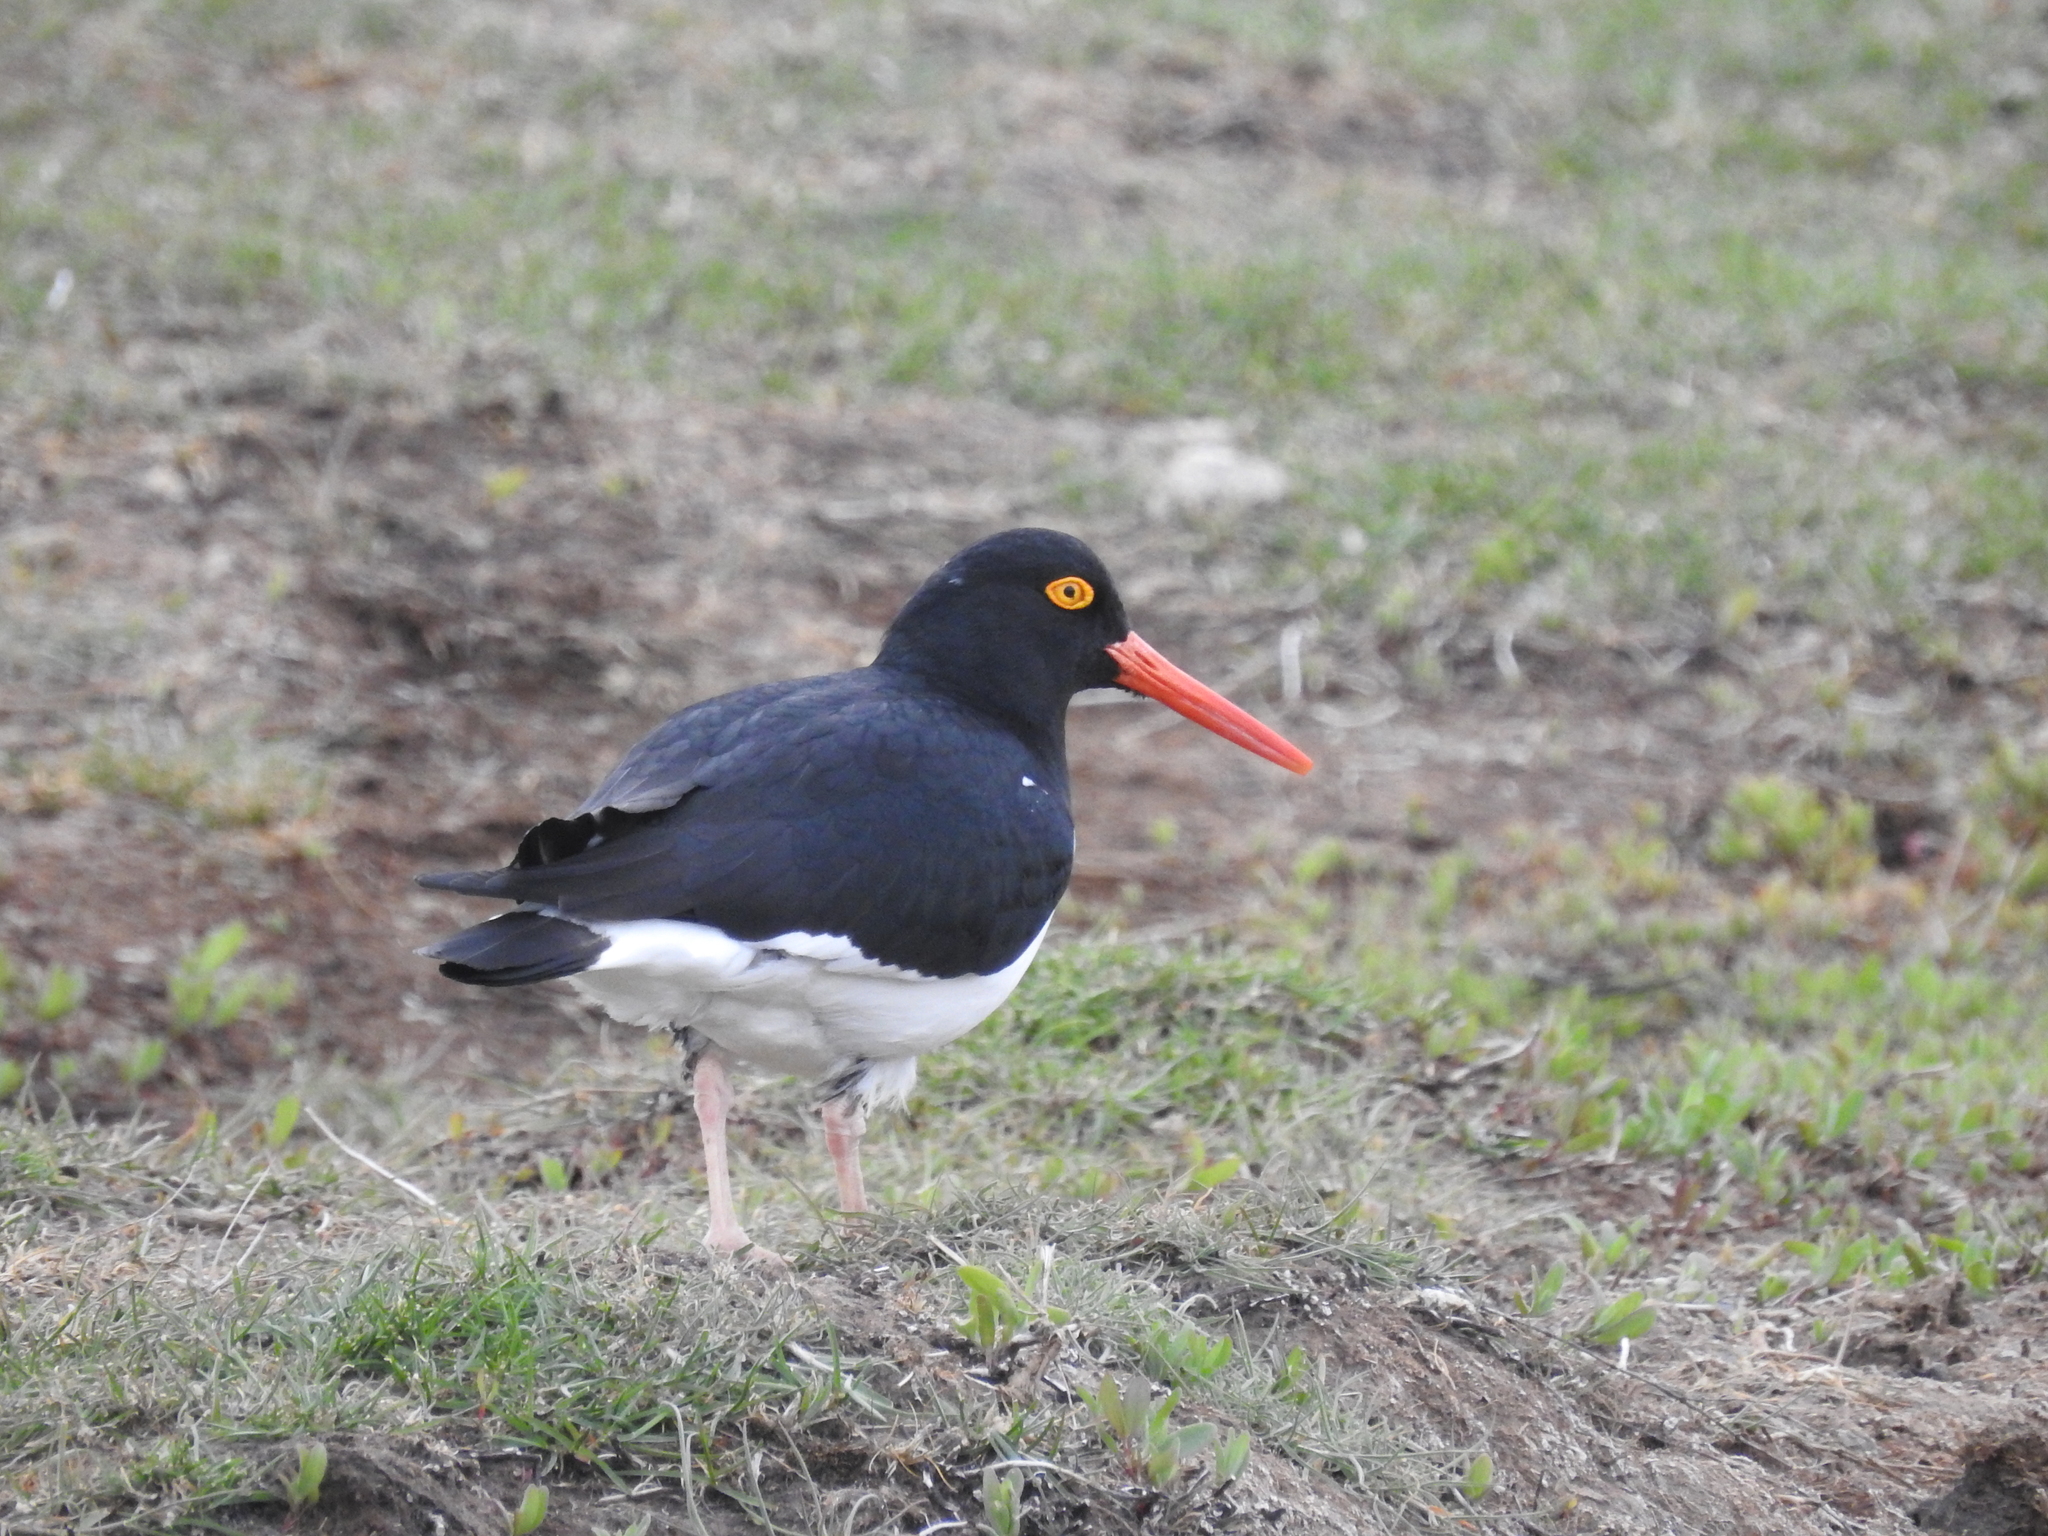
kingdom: Animalia
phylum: Chordata
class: Aves
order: Charadriiformes
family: Haematopodidae
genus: Haematopus
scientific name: Haematopus leucopodus
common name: Magellanic oystercatcher
